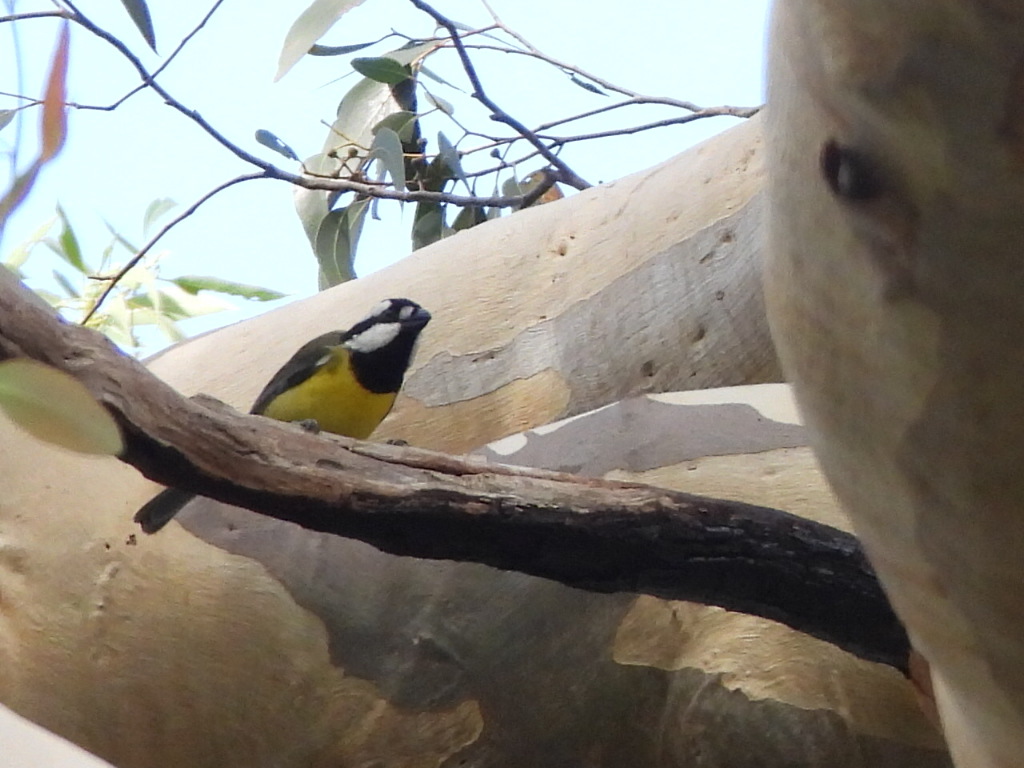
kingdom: Animalia
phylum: Chordata
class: Aves
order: Passeriformes
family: Pachycephalidae
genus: Falcunculus
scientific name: Falcunculus frontatus
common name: Crested shriketit
